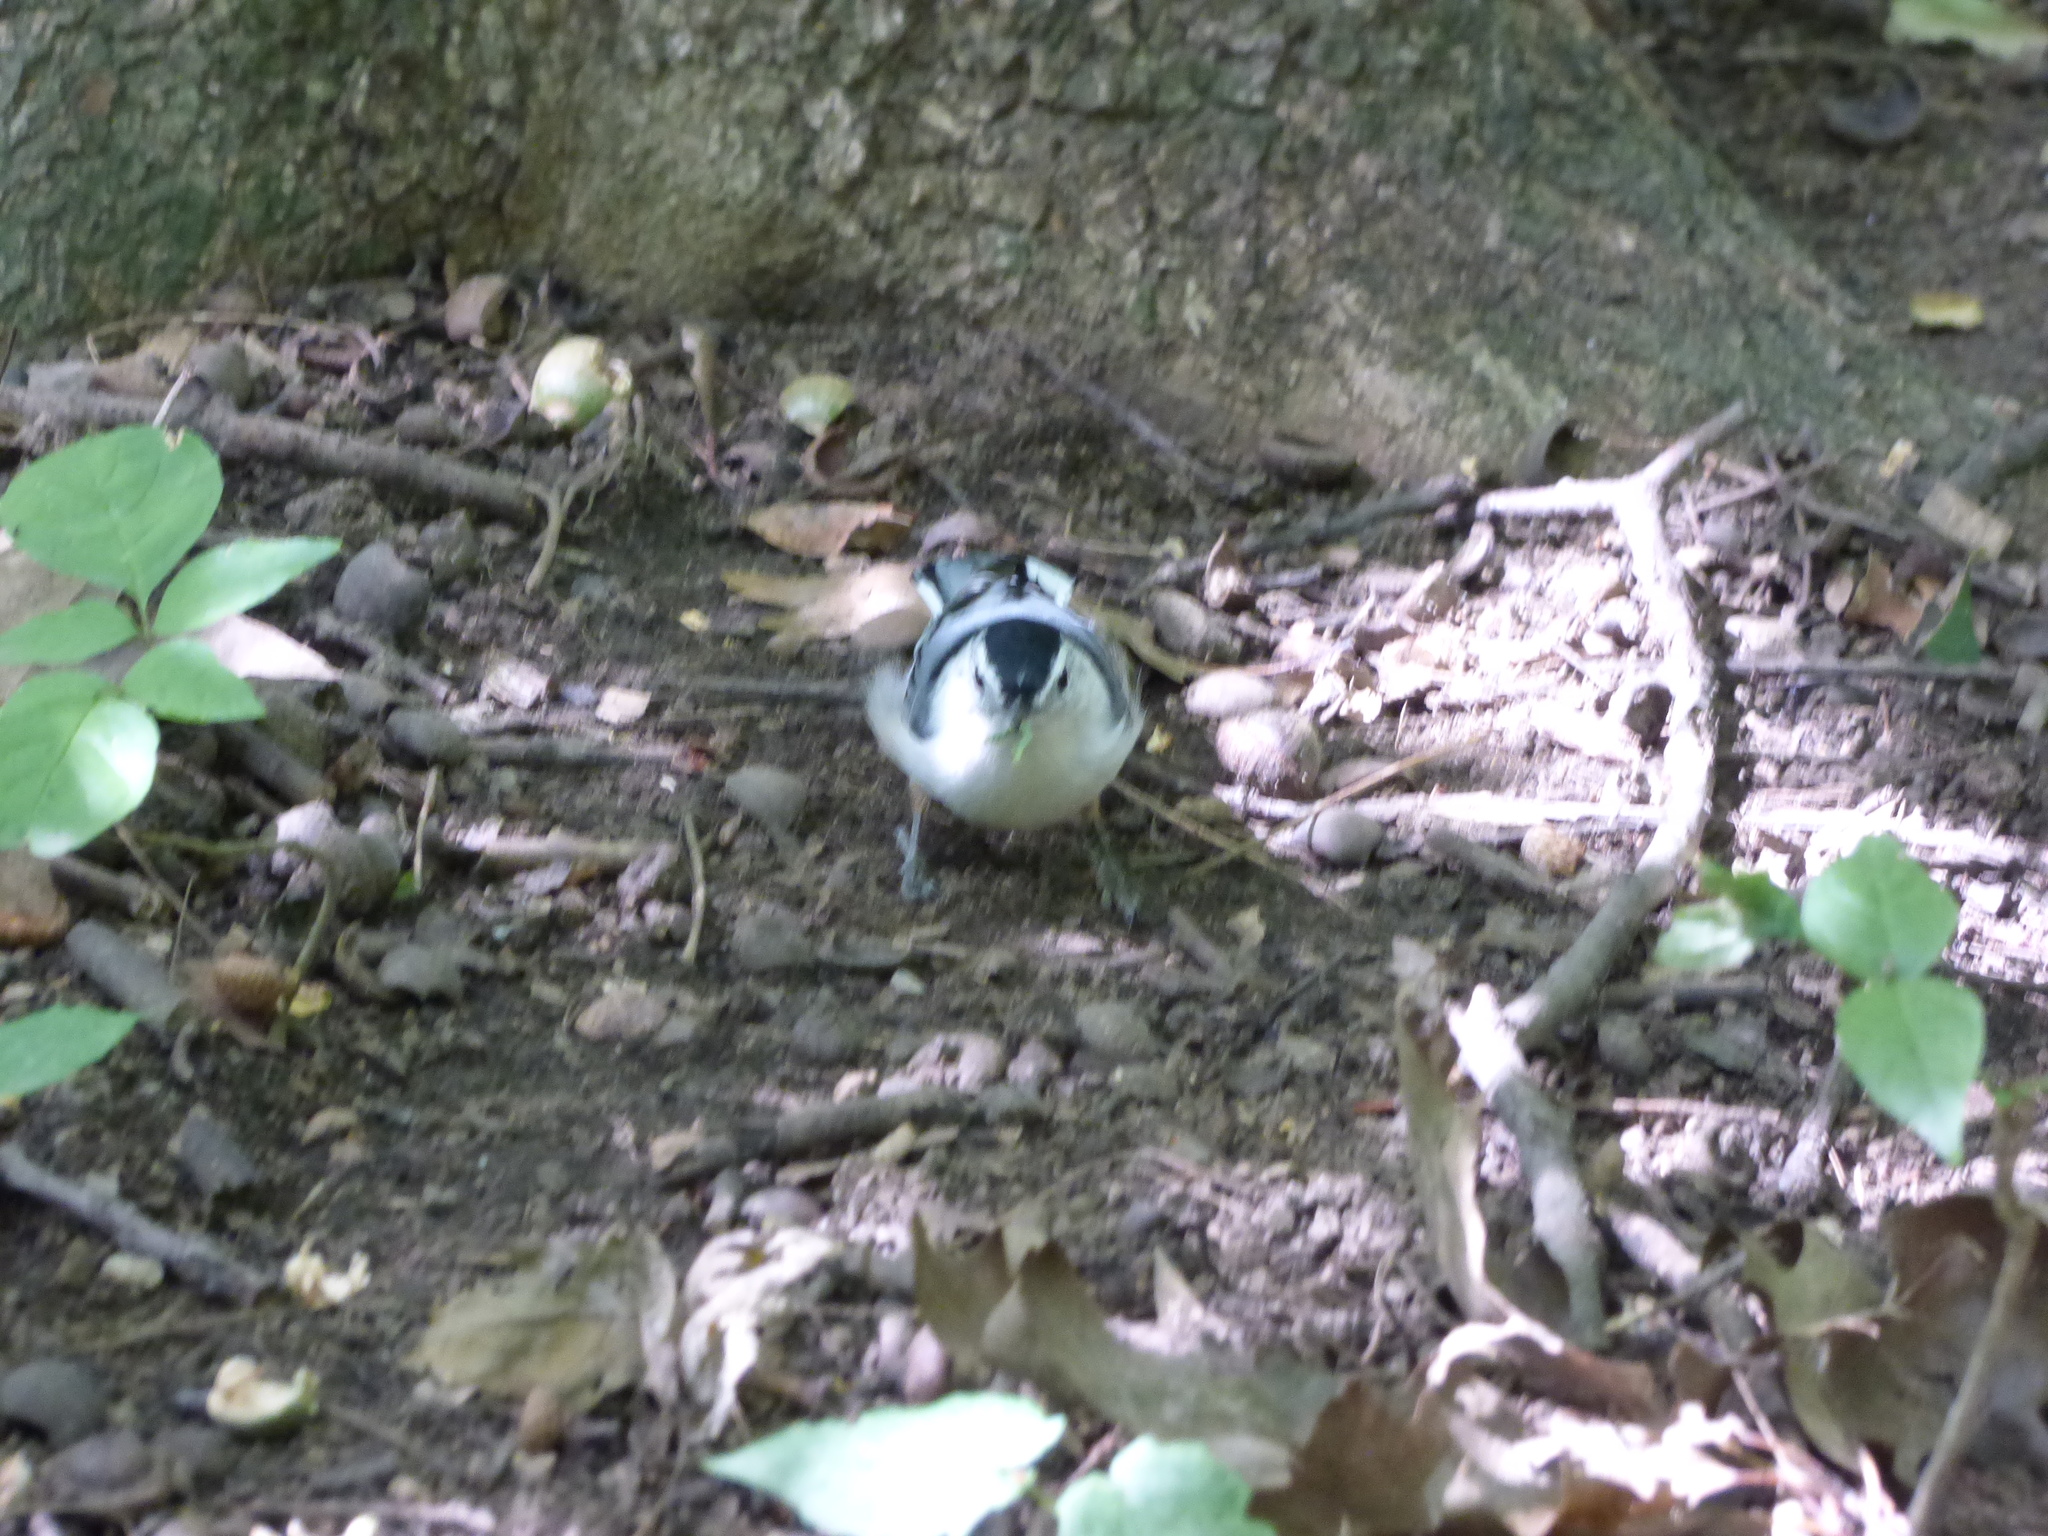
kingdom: Animalia
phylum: Chordata
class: Aves
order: Passeriformes
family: Sittidae
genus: Sitta
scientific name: Sitta carolinensis
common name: White-breasted nuthatch
